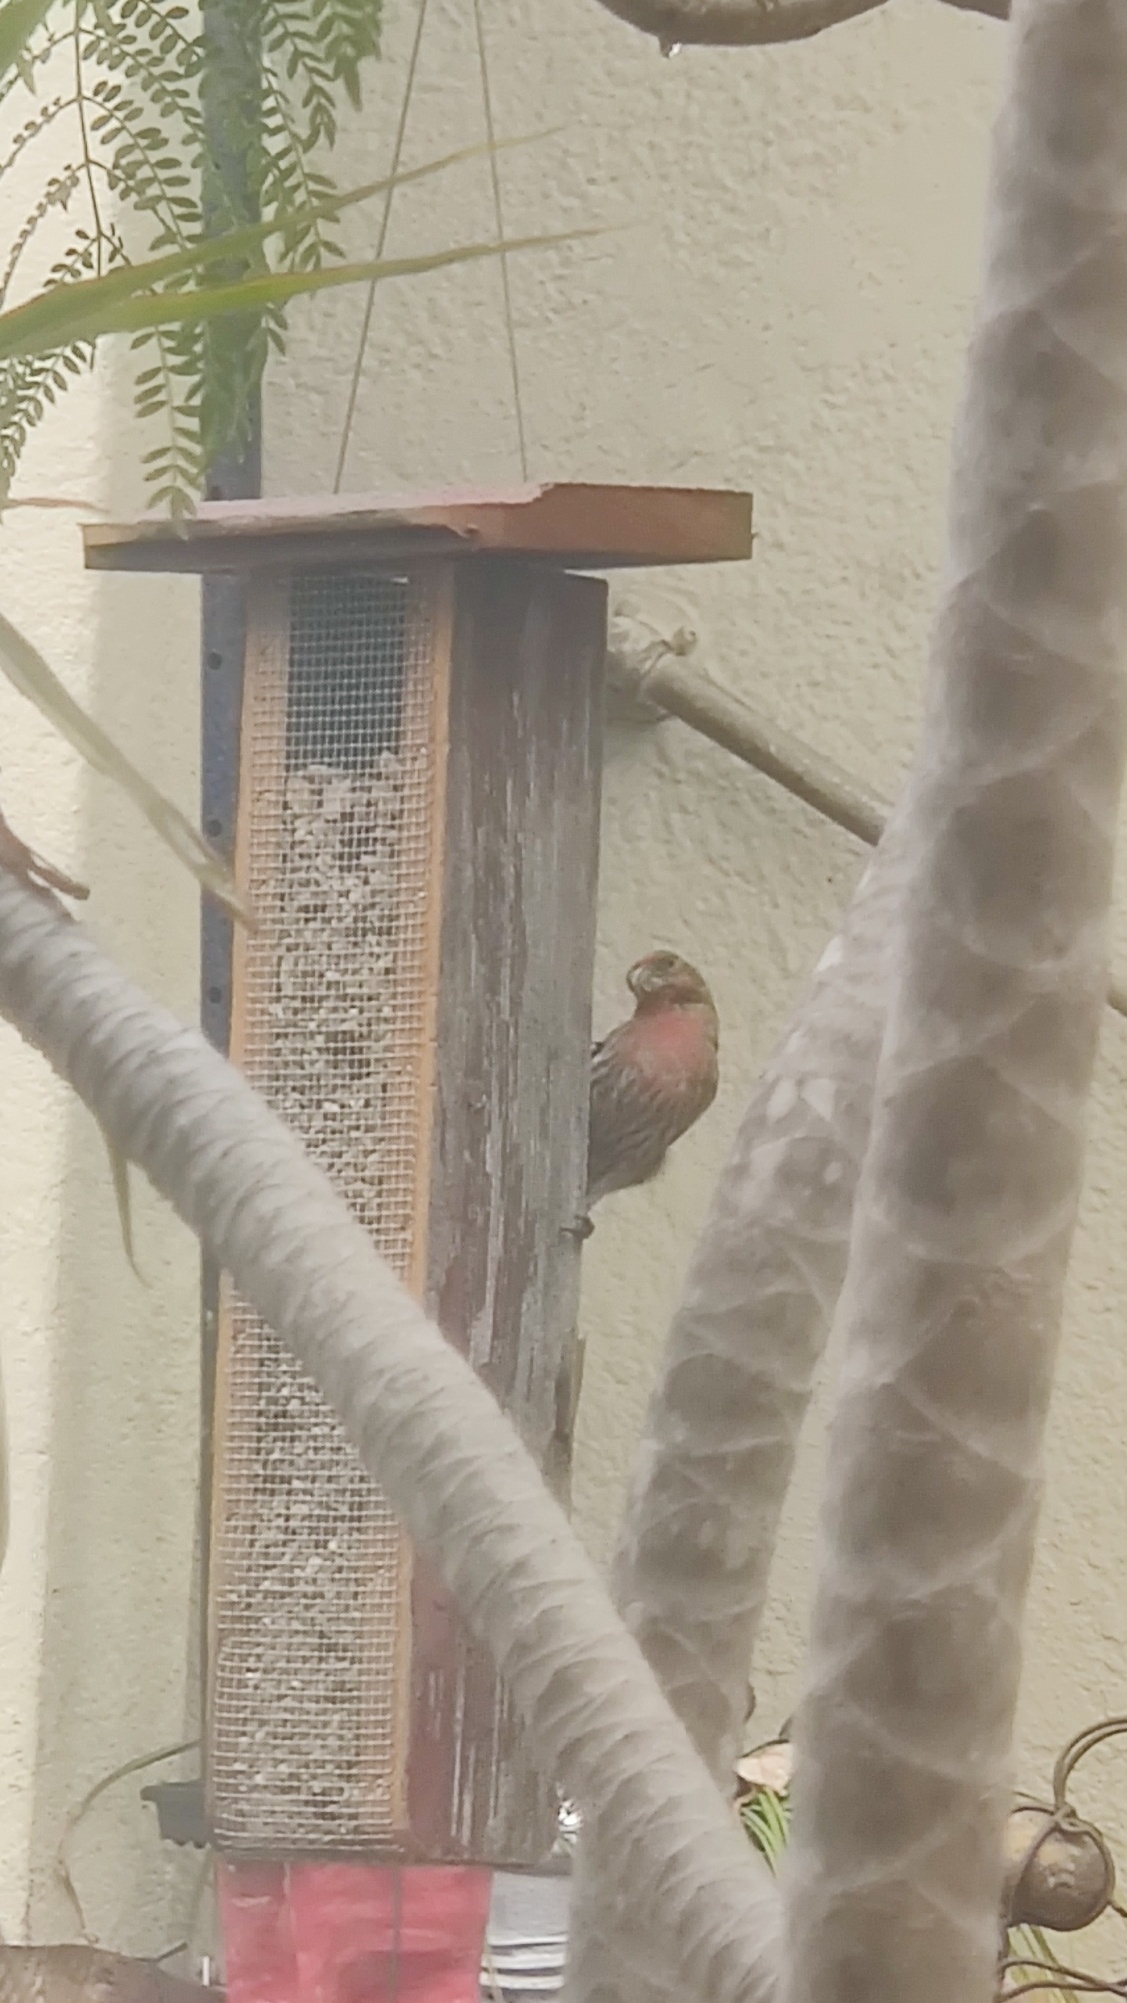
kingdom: Animalia
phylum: Chordata
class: Aves
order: Passeriformes
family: Fringillidae
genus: Haemorhous
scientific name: Haemorhous mexicanus
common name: House finch
